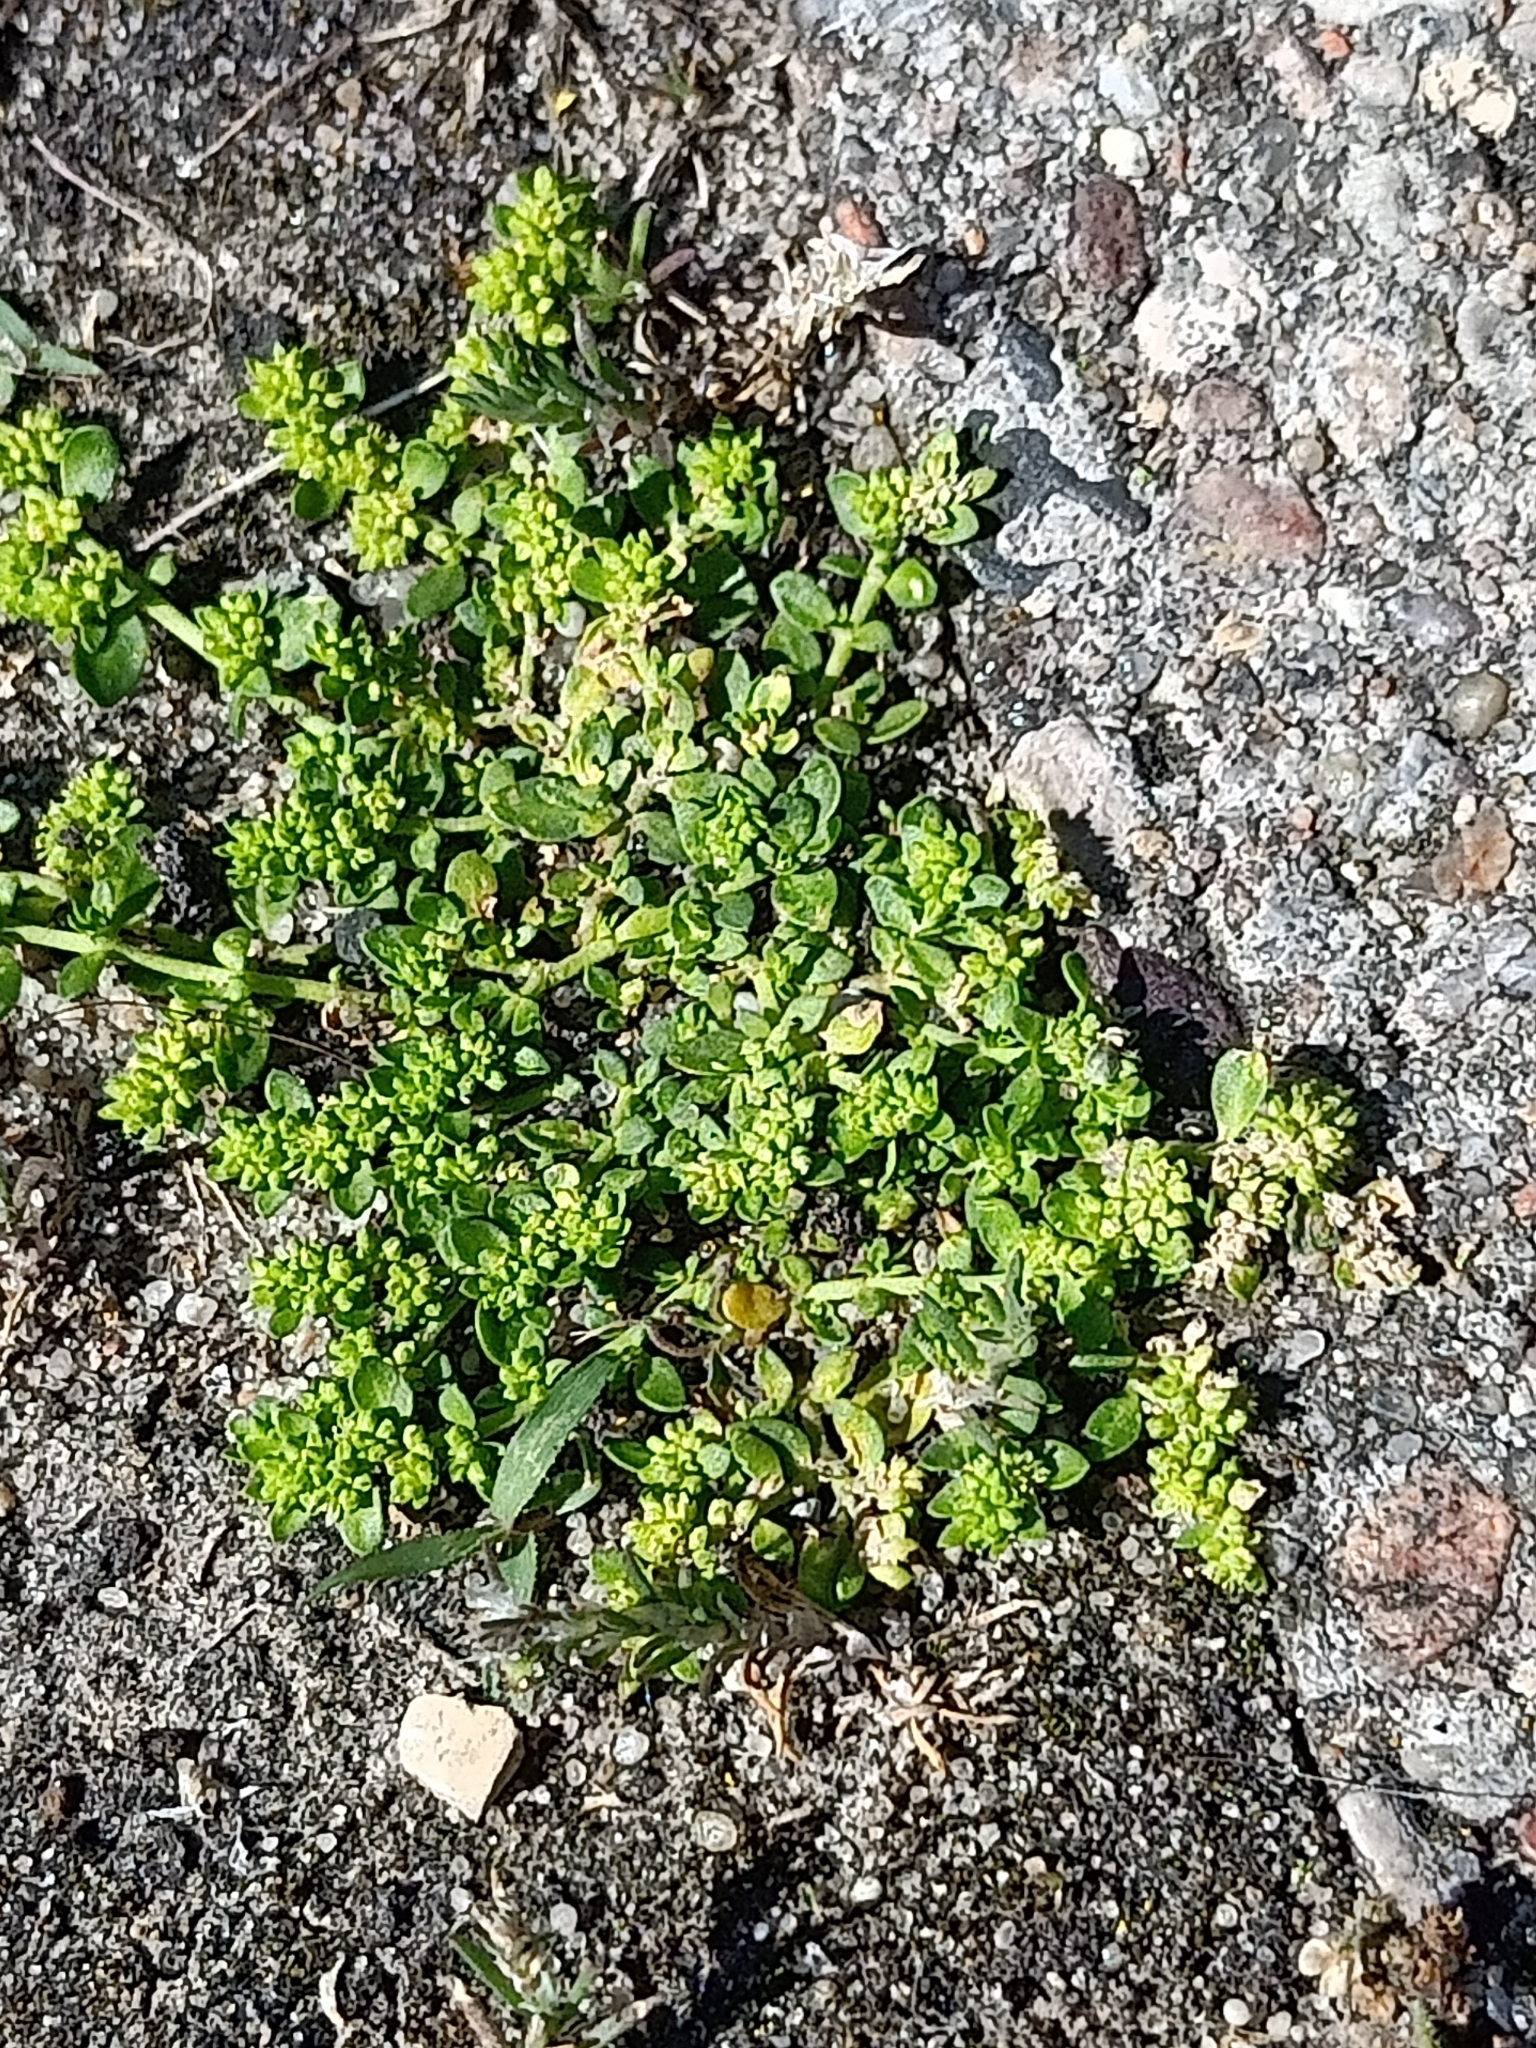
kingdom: Plantae
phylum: Tracheophyta
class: Magnoliopsida
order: Caryophyllales
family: Caryophyllaceae
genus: Herniaria
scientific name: Herniaria glabra
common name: Smooth rupturewort
